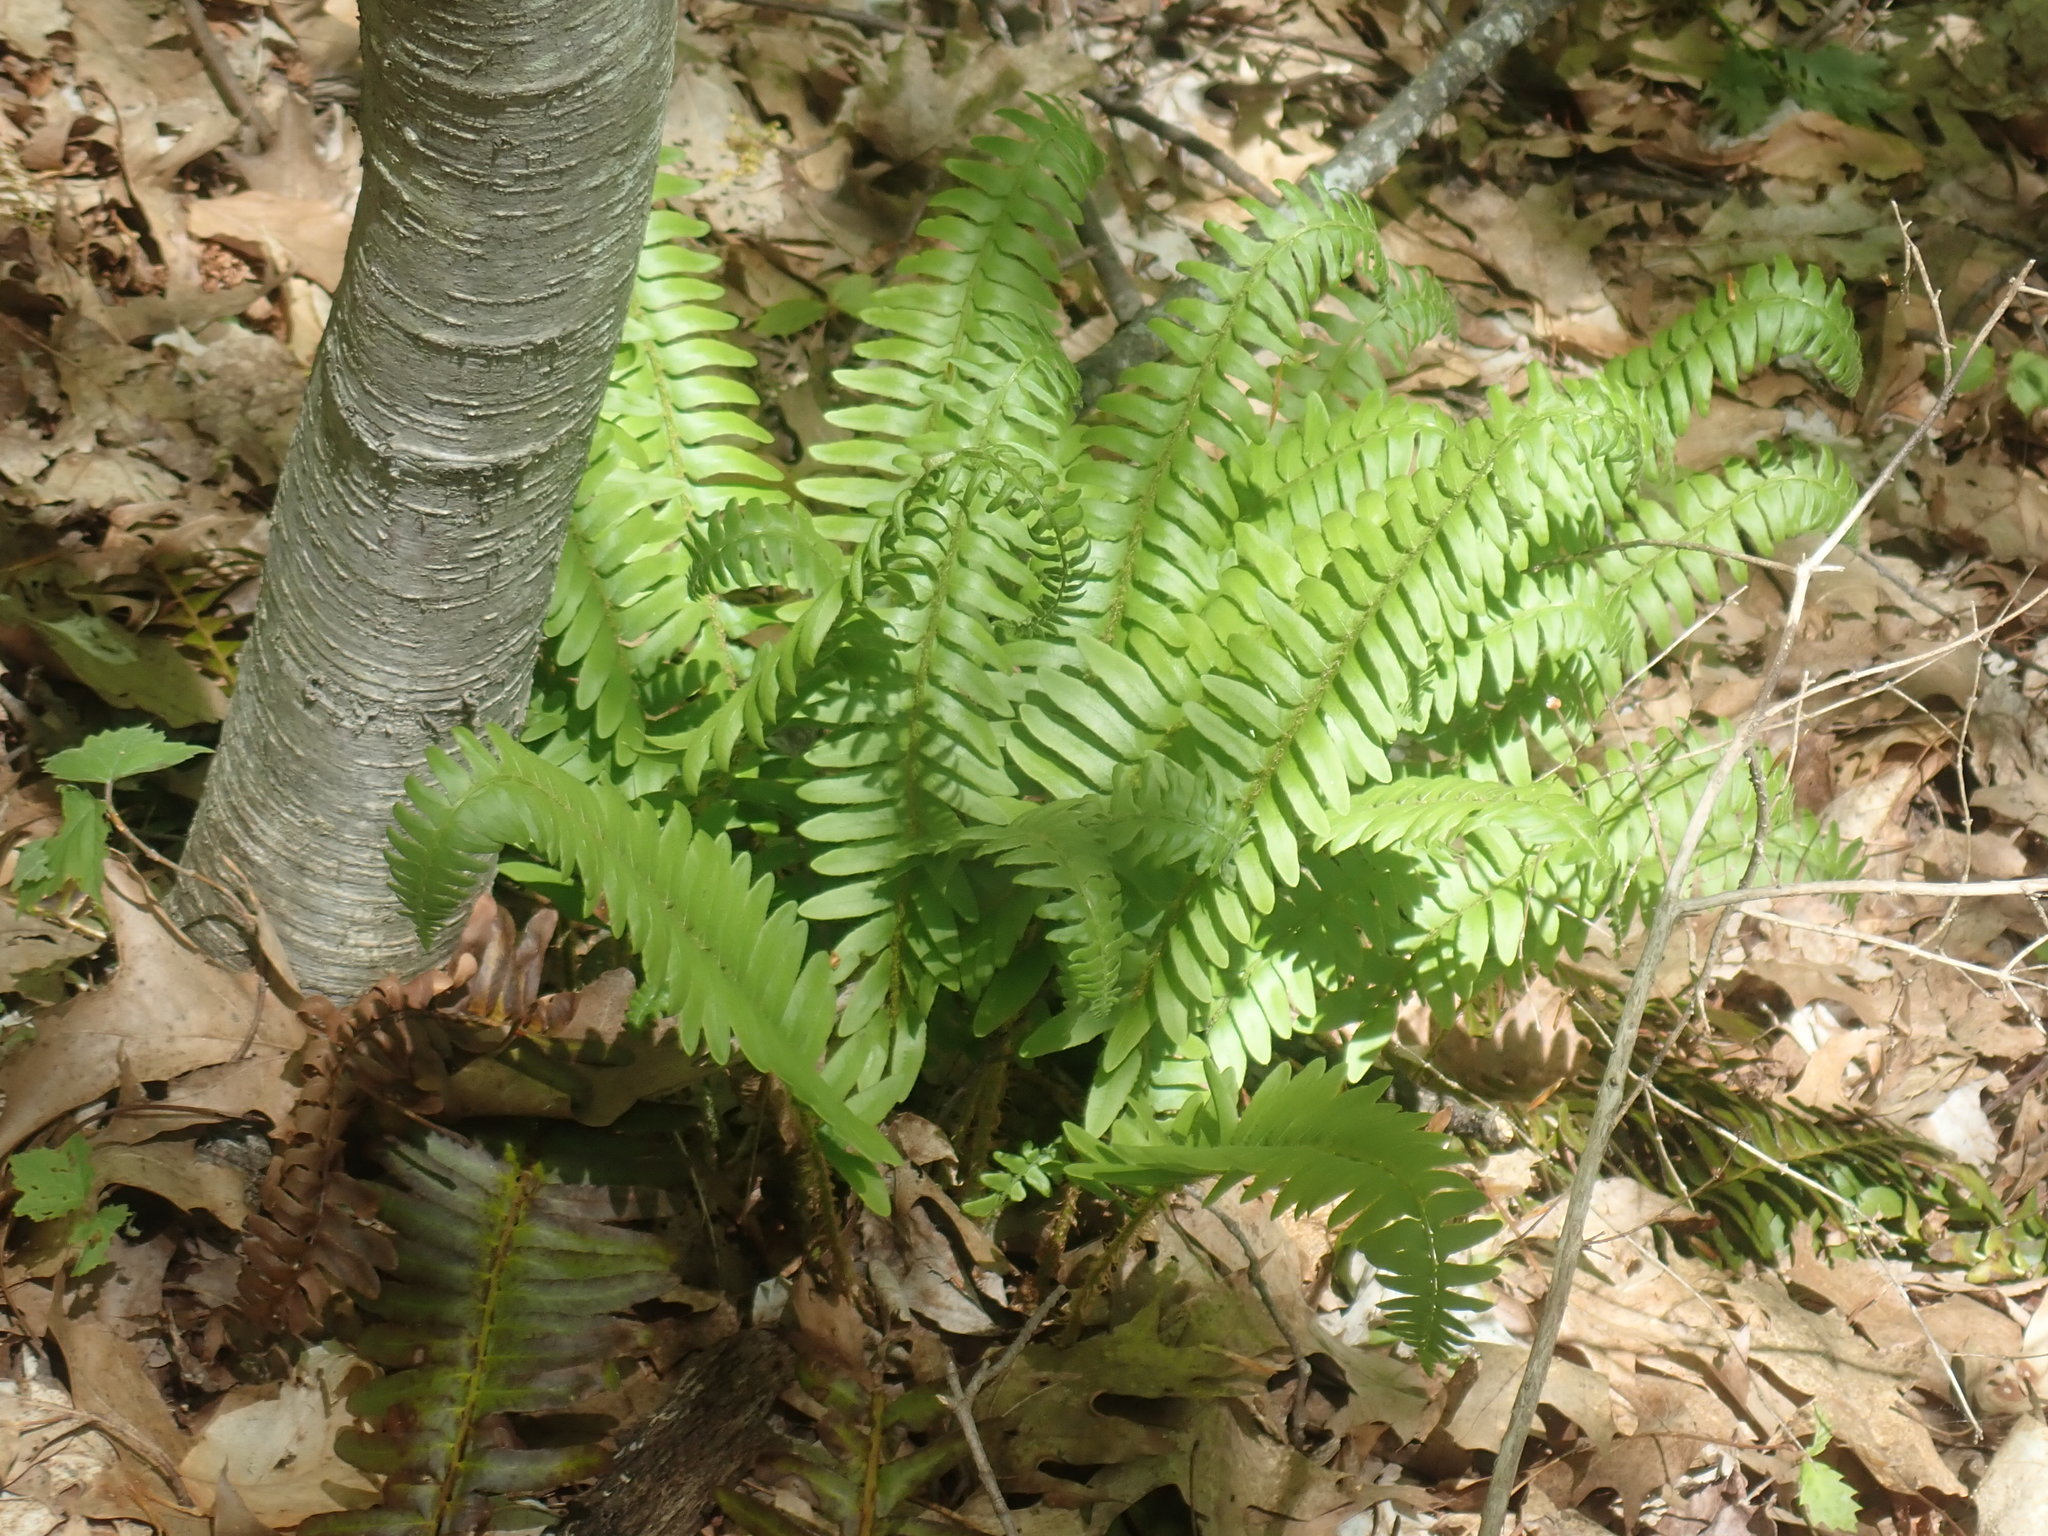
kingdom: Plantae
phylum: Tracheophyta
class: Polypodiopsida
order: Polypodiales
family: Dryopteridaceae
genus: Polystichum
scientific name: Polystichum acrostichoides
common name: Christmas fern
